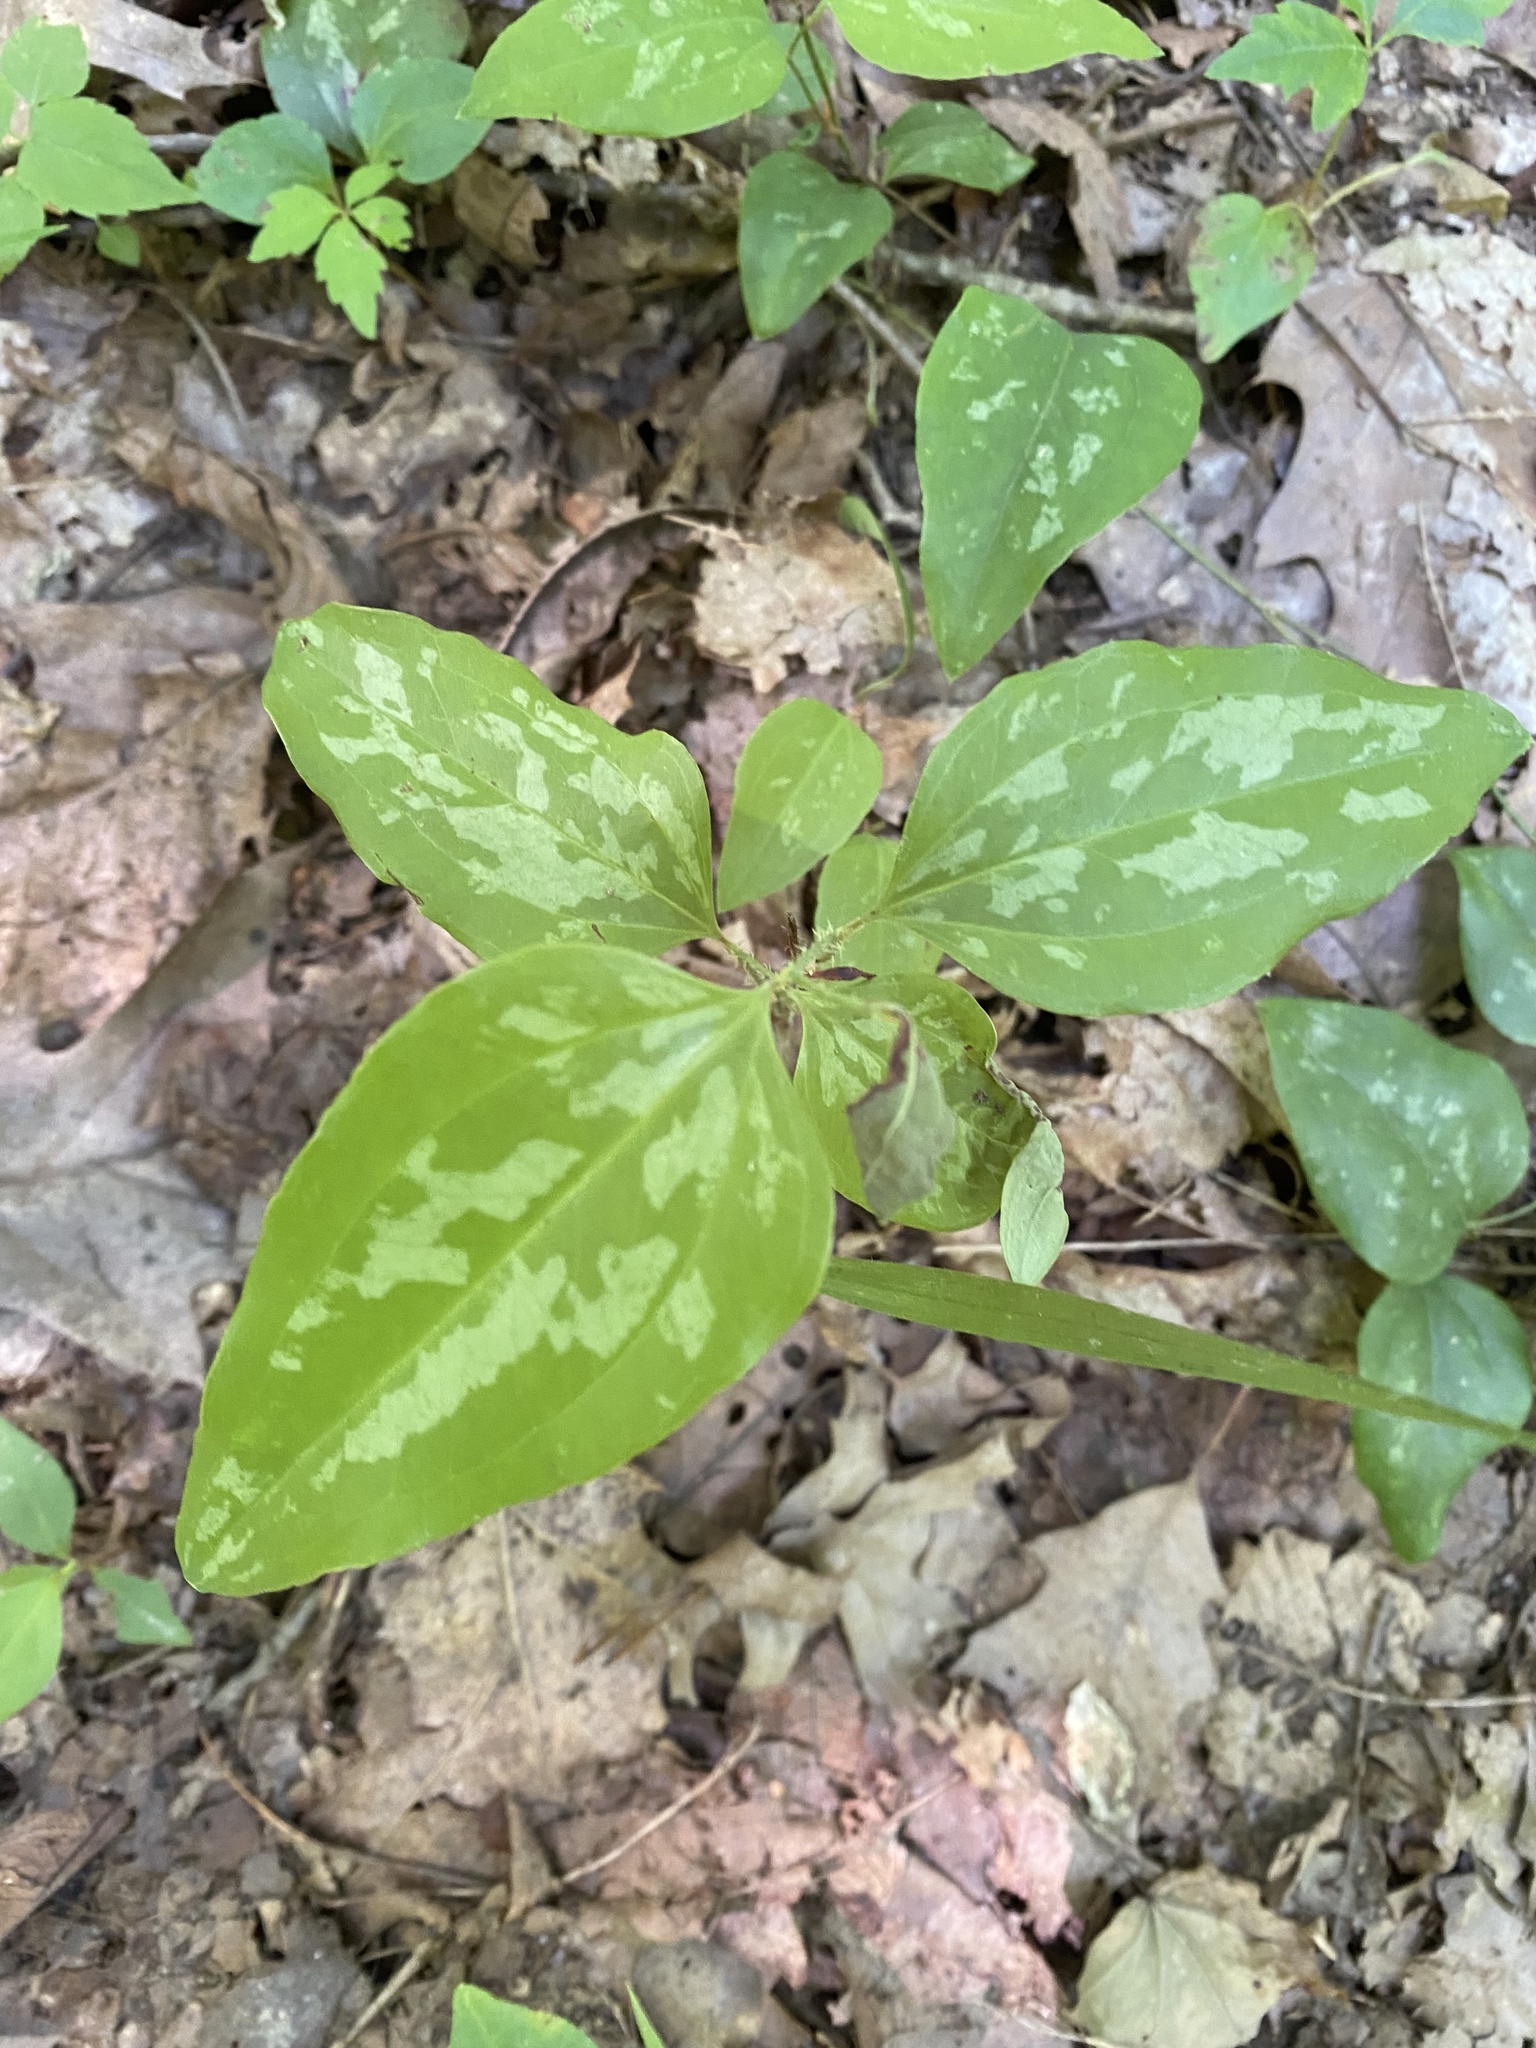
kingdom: Plantae
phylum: Tracheophyta
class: Liliopsida
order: Liliales
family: Smilacaceae
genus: Smilax
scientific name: Smilax glauca
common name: Cat greenbrier
